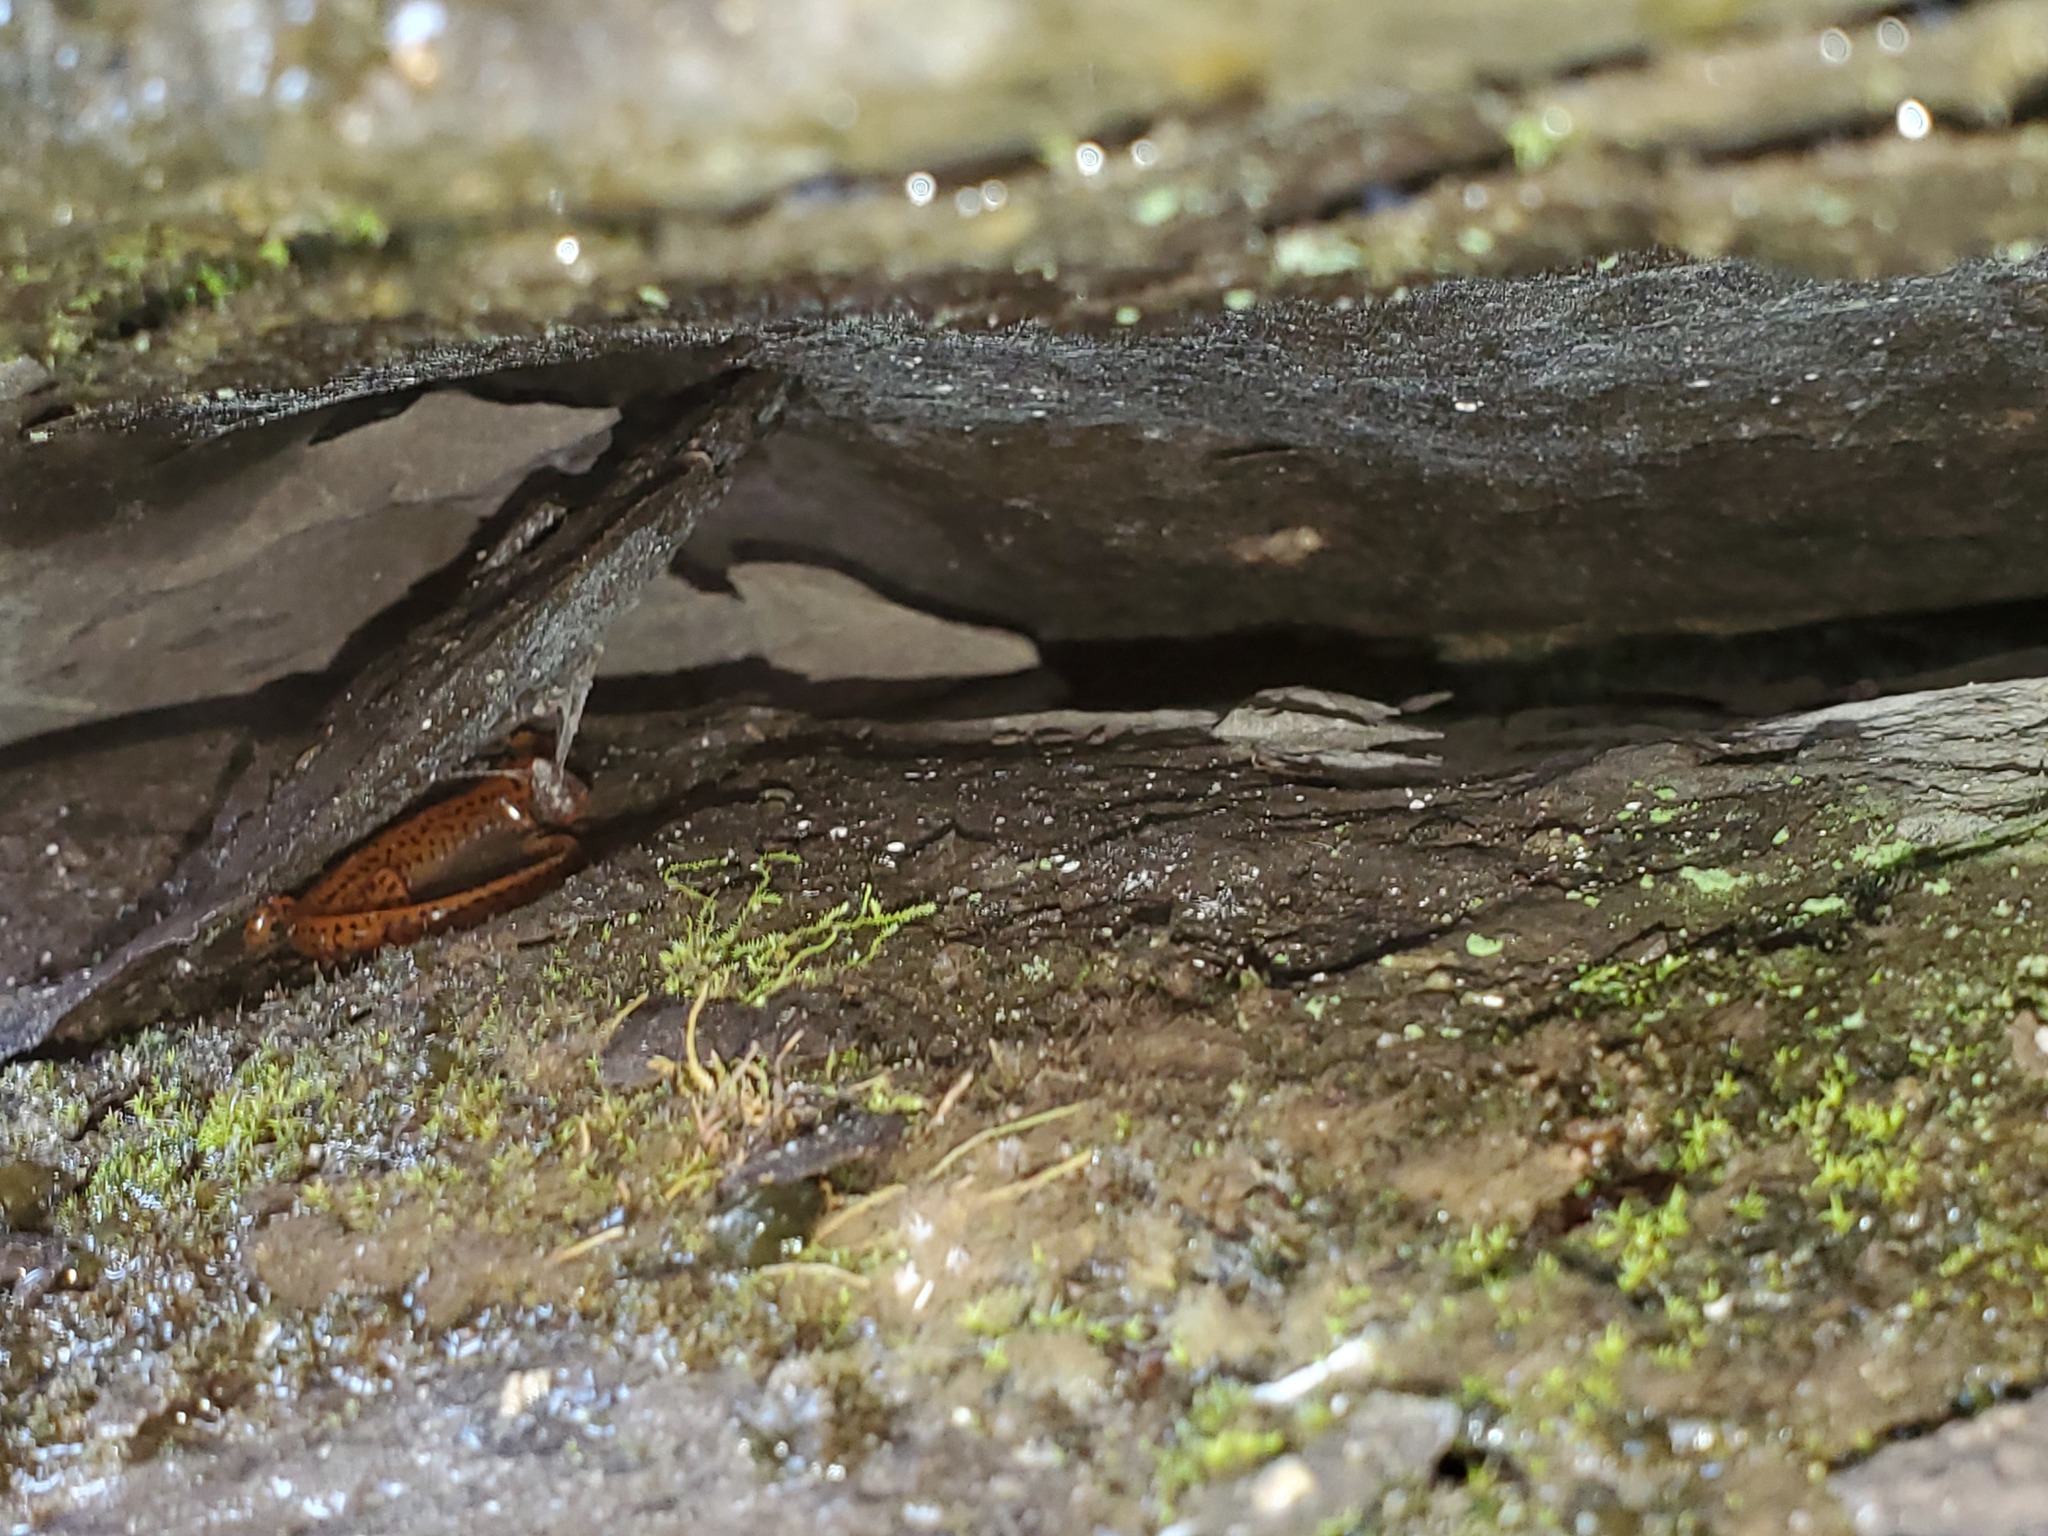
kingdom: Animalia
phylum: Chordata
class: Amphibia
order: Caudata
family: Plethodontidae
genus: Eurycea
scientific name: Eurycea lucifuga
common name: Cave salamander
